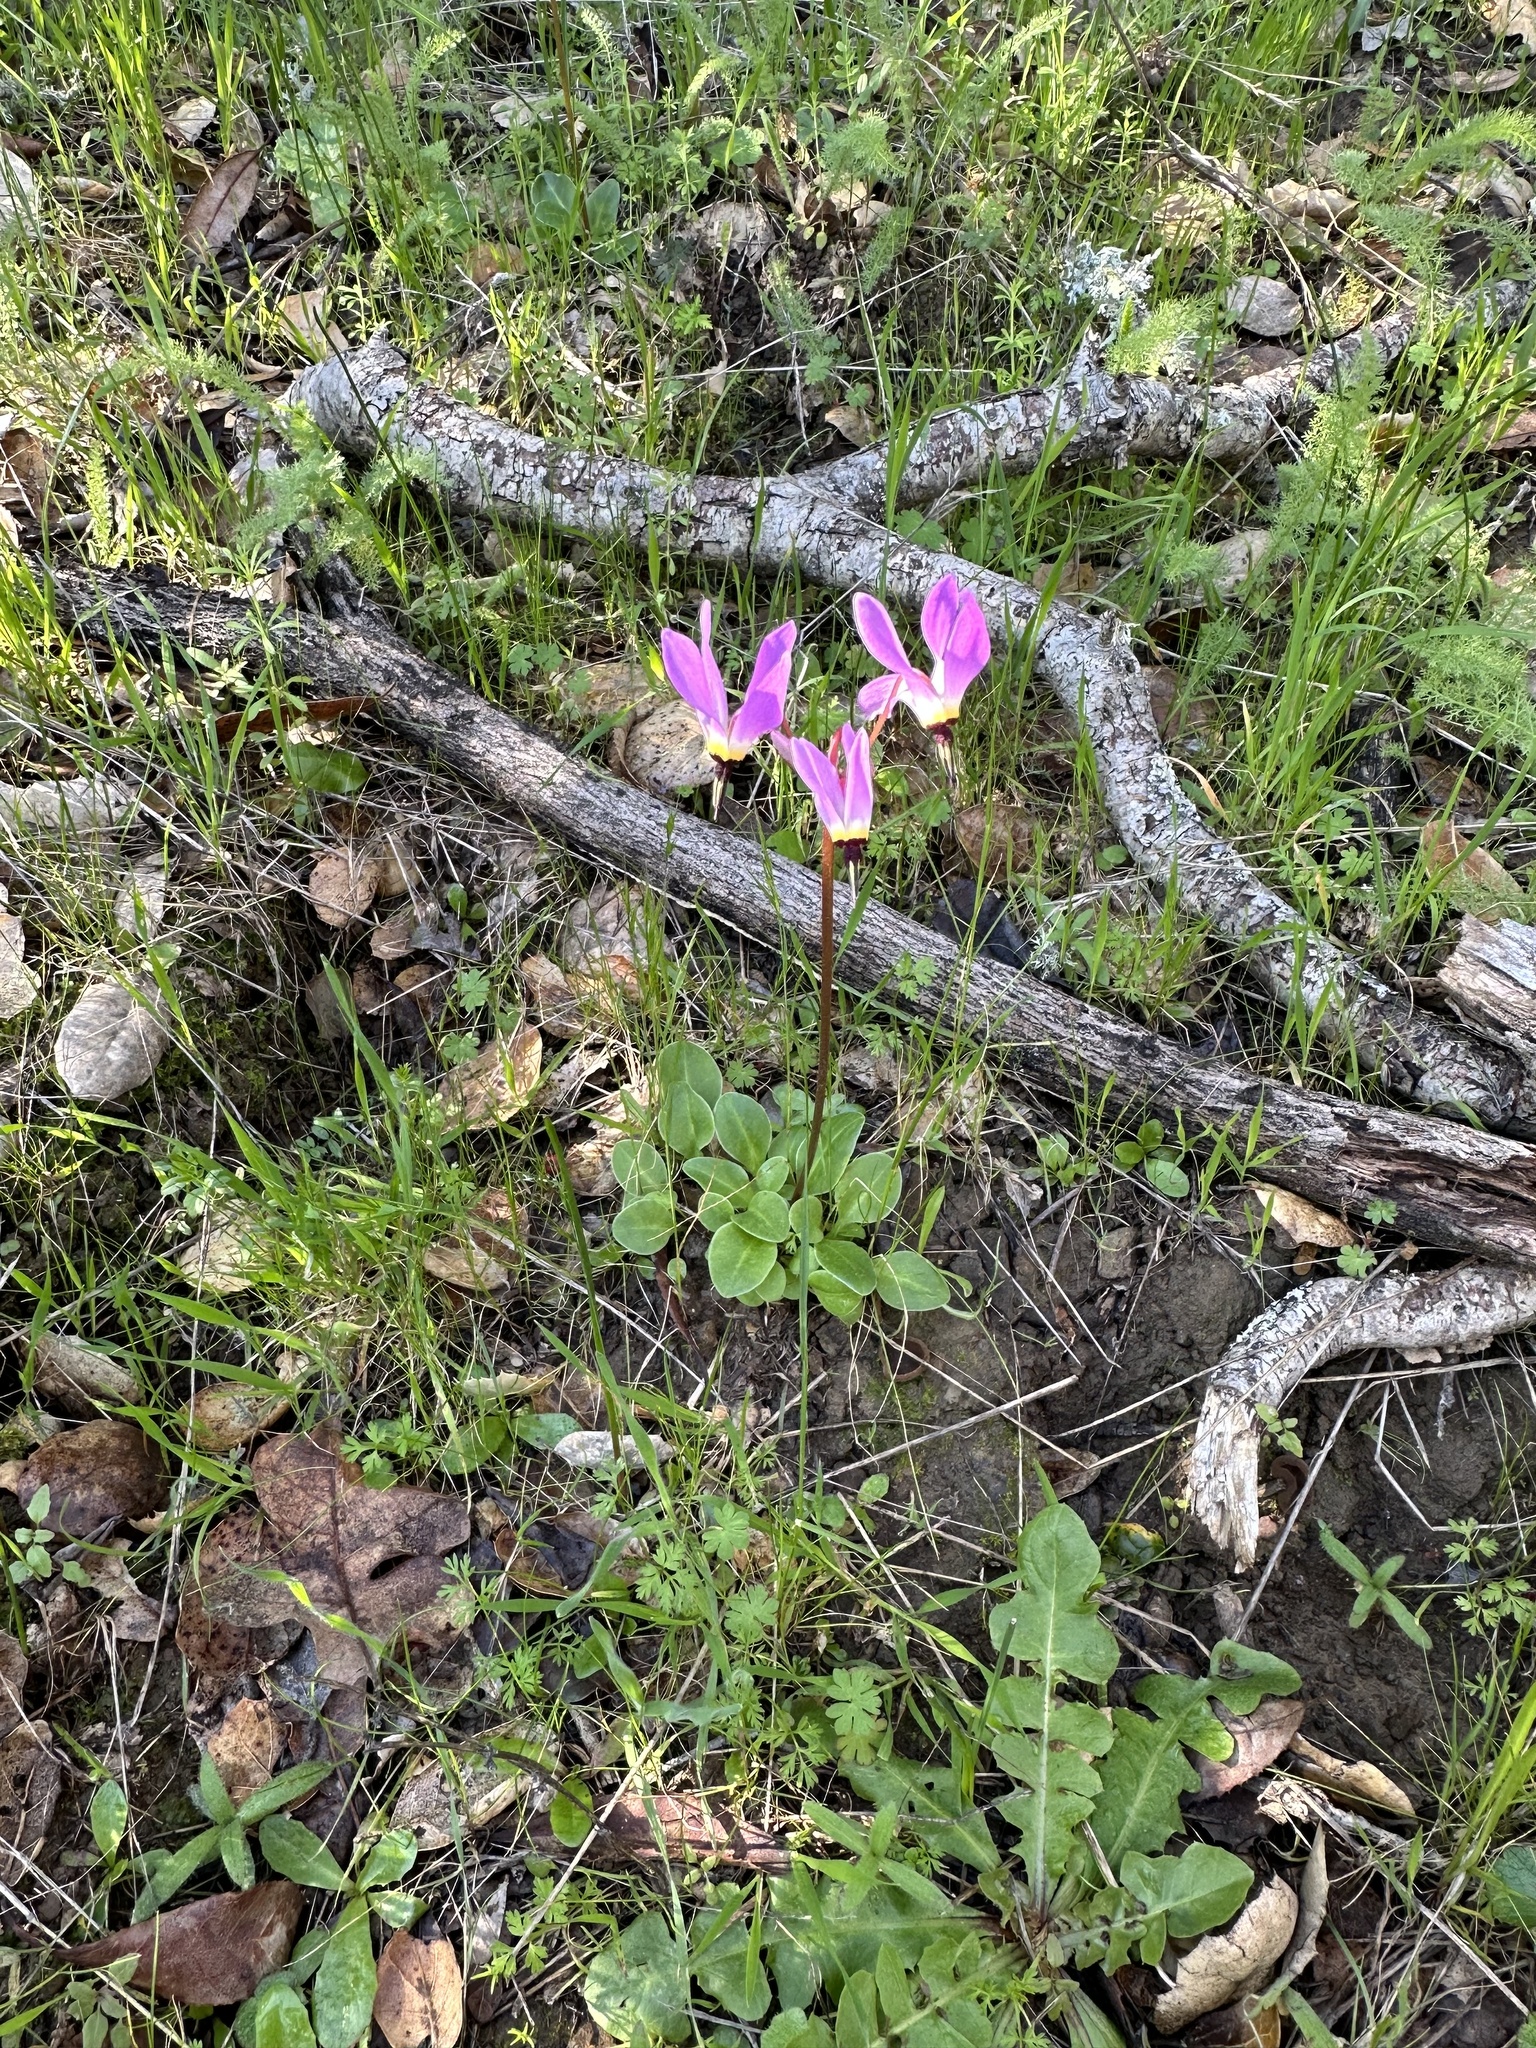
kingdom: Plantae
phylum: Tracheophyta
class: Magnoliopsida
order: Ericales
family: Primulaceae
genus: Dodecatheon
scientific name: Dodecatheon hendersonii
